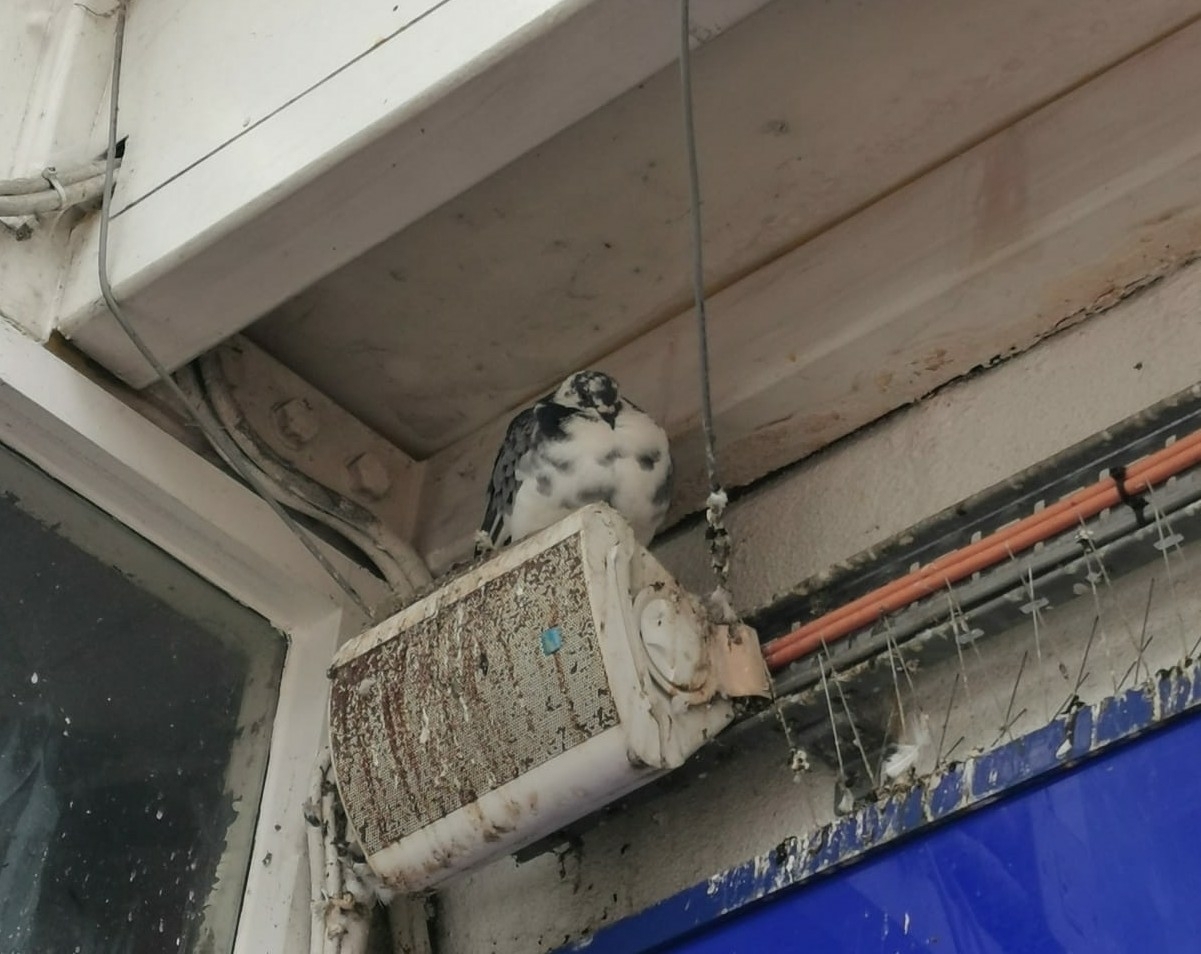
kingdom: Animalia
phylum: Chordata
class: Aves
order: Columbiformes
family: Columbidae
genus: Columba
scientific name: Columba livia
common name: Rock pigeon
